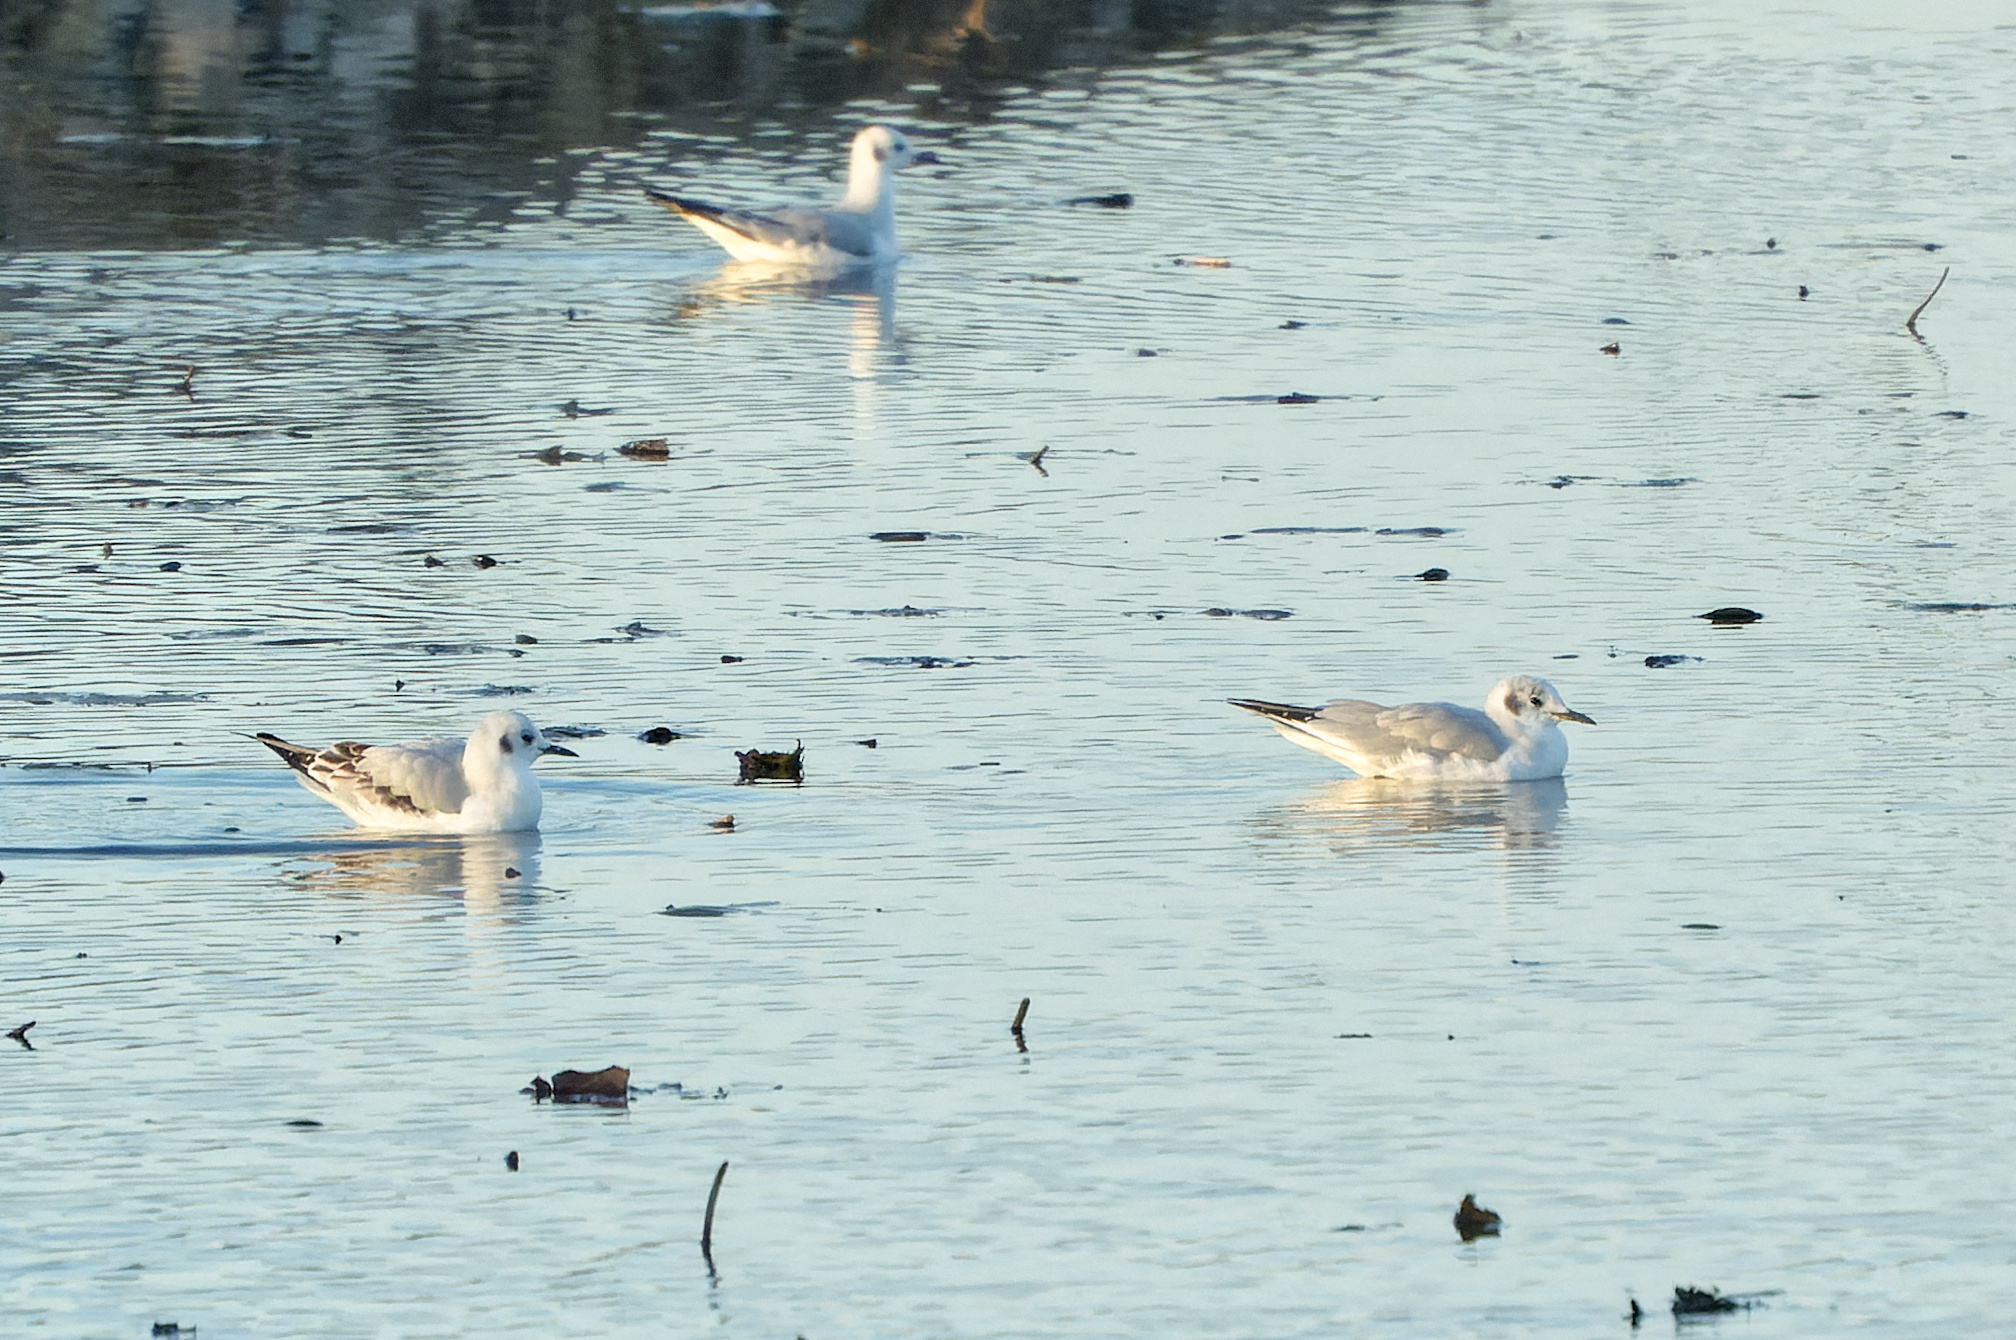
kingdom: Animalia
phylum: Chordata
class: Aves
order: Charadriiformes
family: Laridae
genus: Chroicocephalus
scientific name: Chroicocephalus philadelphia
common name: Bonaparte's gull
